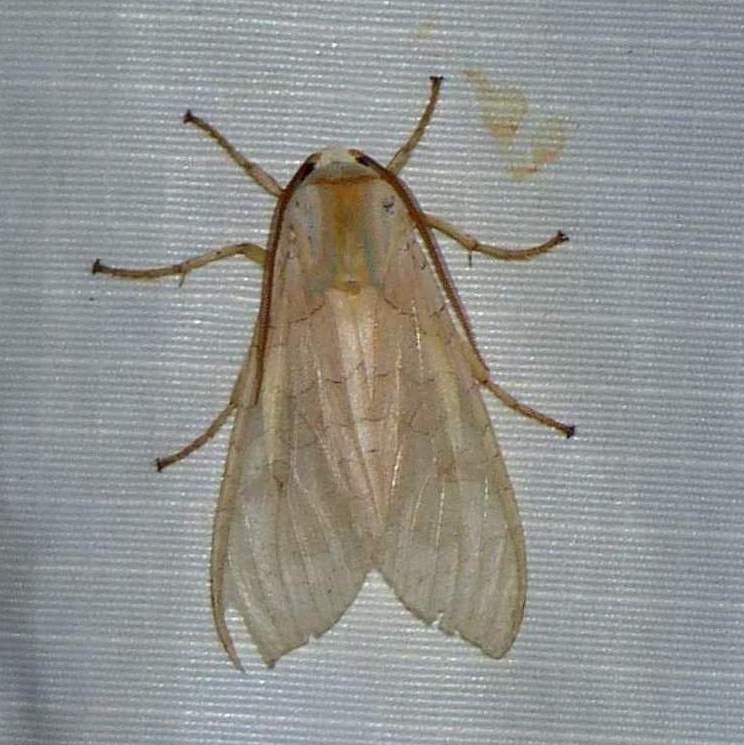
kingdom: Animalia
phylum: Arthropoda
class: Insecta
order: Lepidoptera
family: Erebidae
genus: Halysidota
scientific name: Halysidota tessellaris
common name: Banded tussock moth
